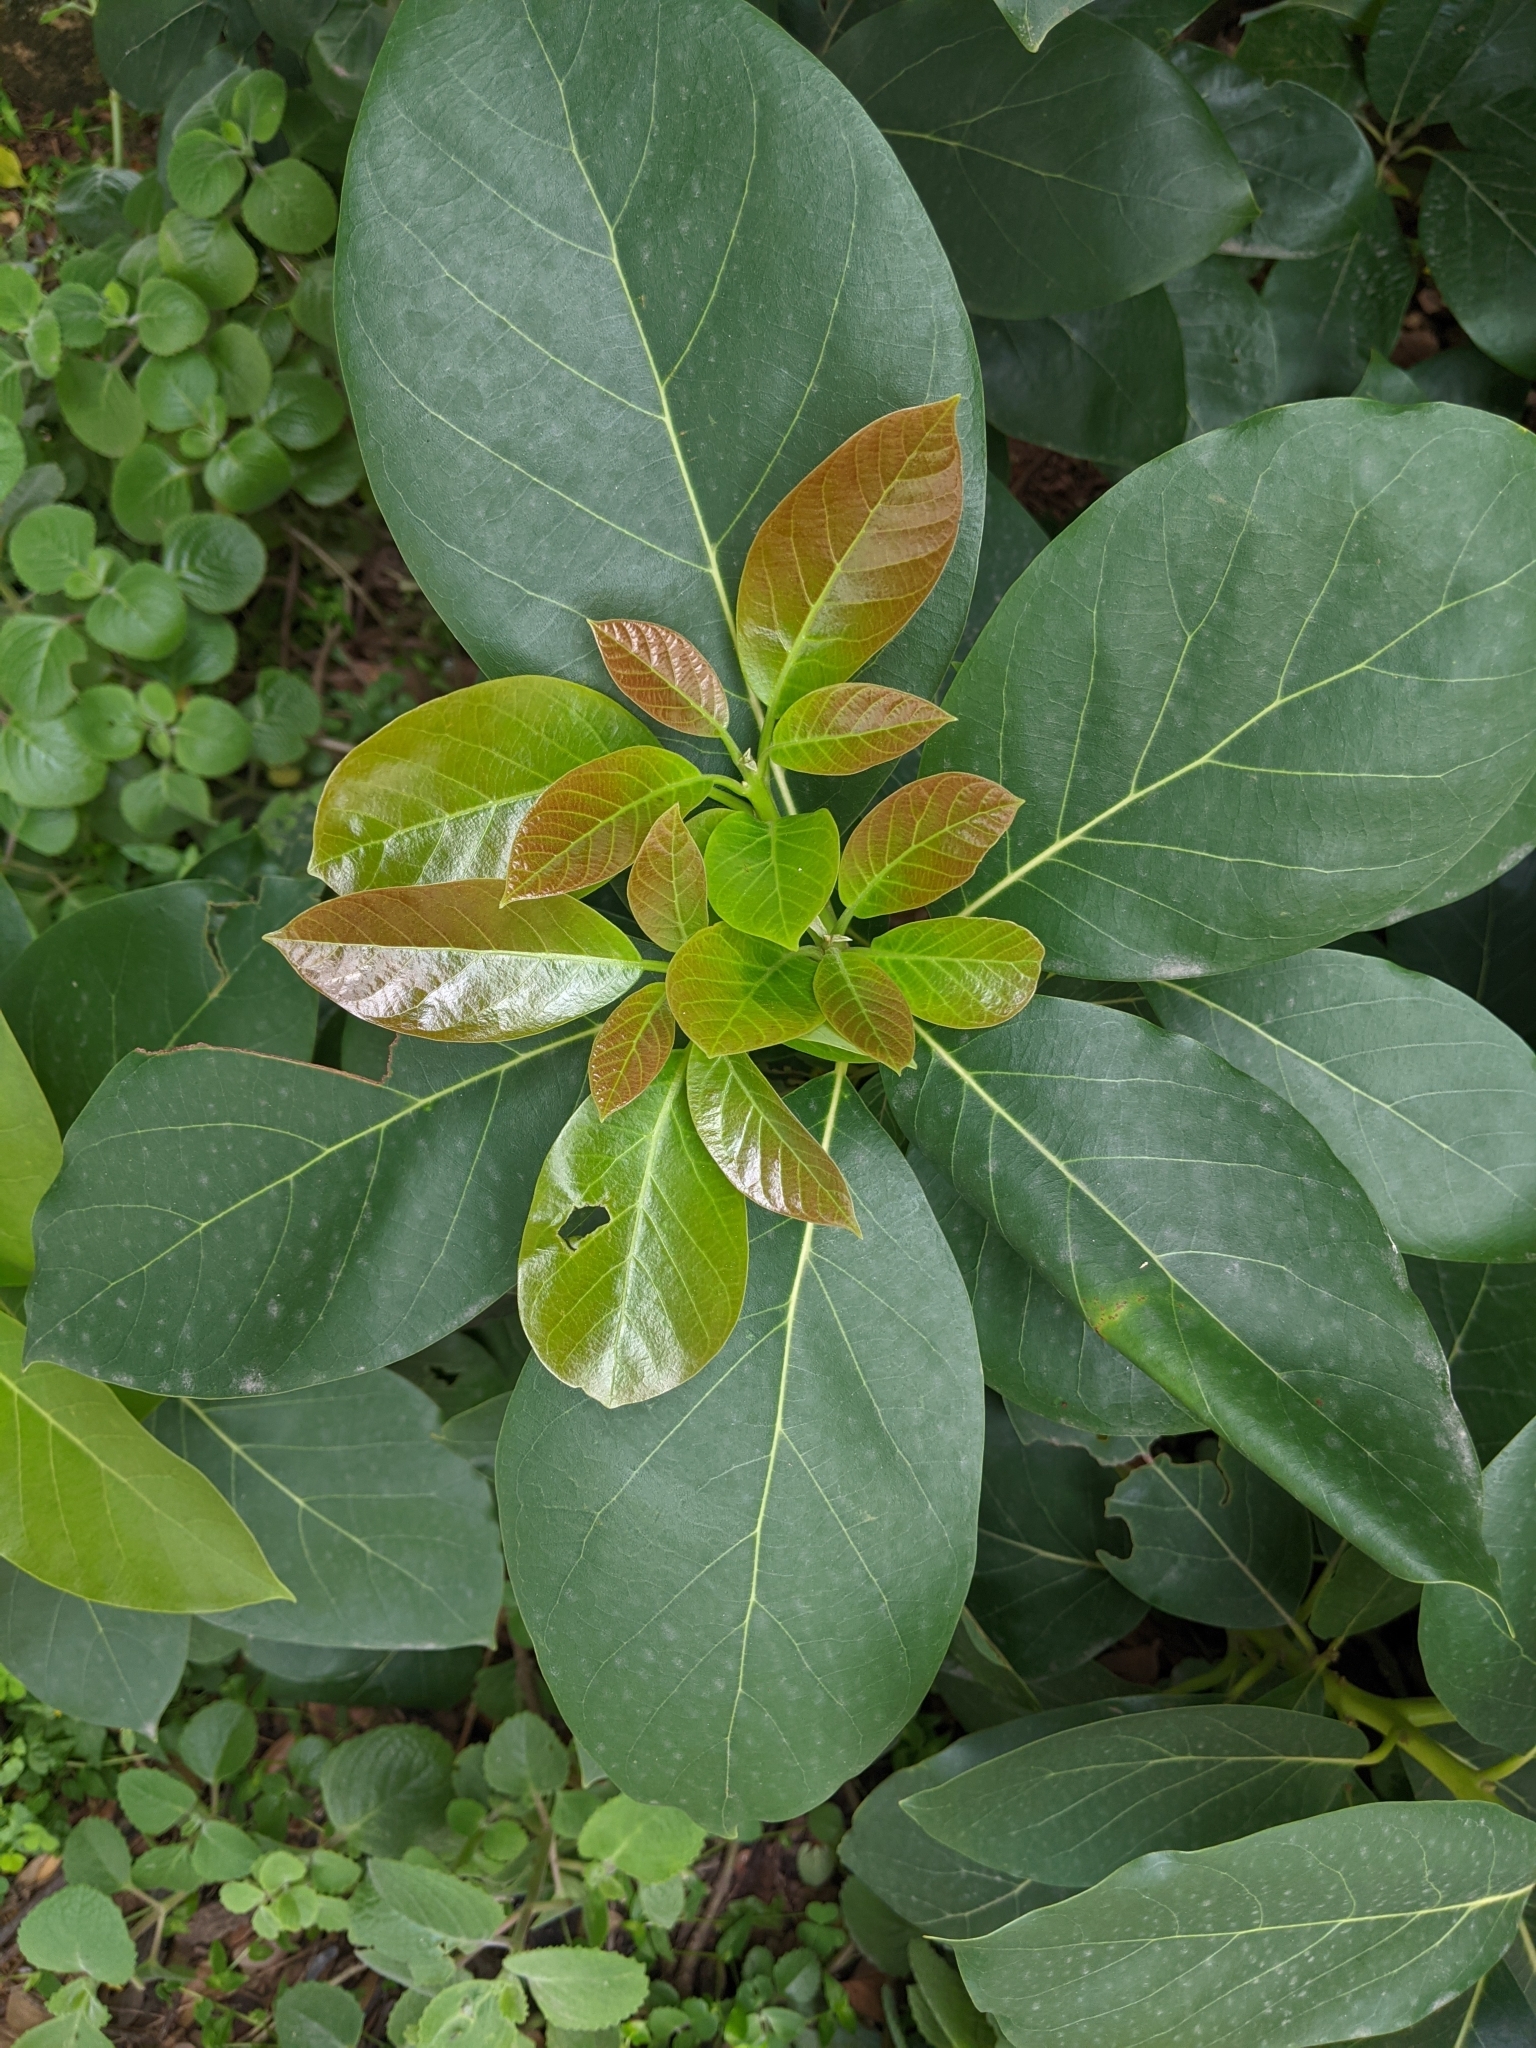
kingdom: Plantae
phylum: Tracheophyta
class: Magnoliopsida
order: Laurales
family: Lauraceae
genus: Persea
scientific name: Persea americana
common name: Avocado
